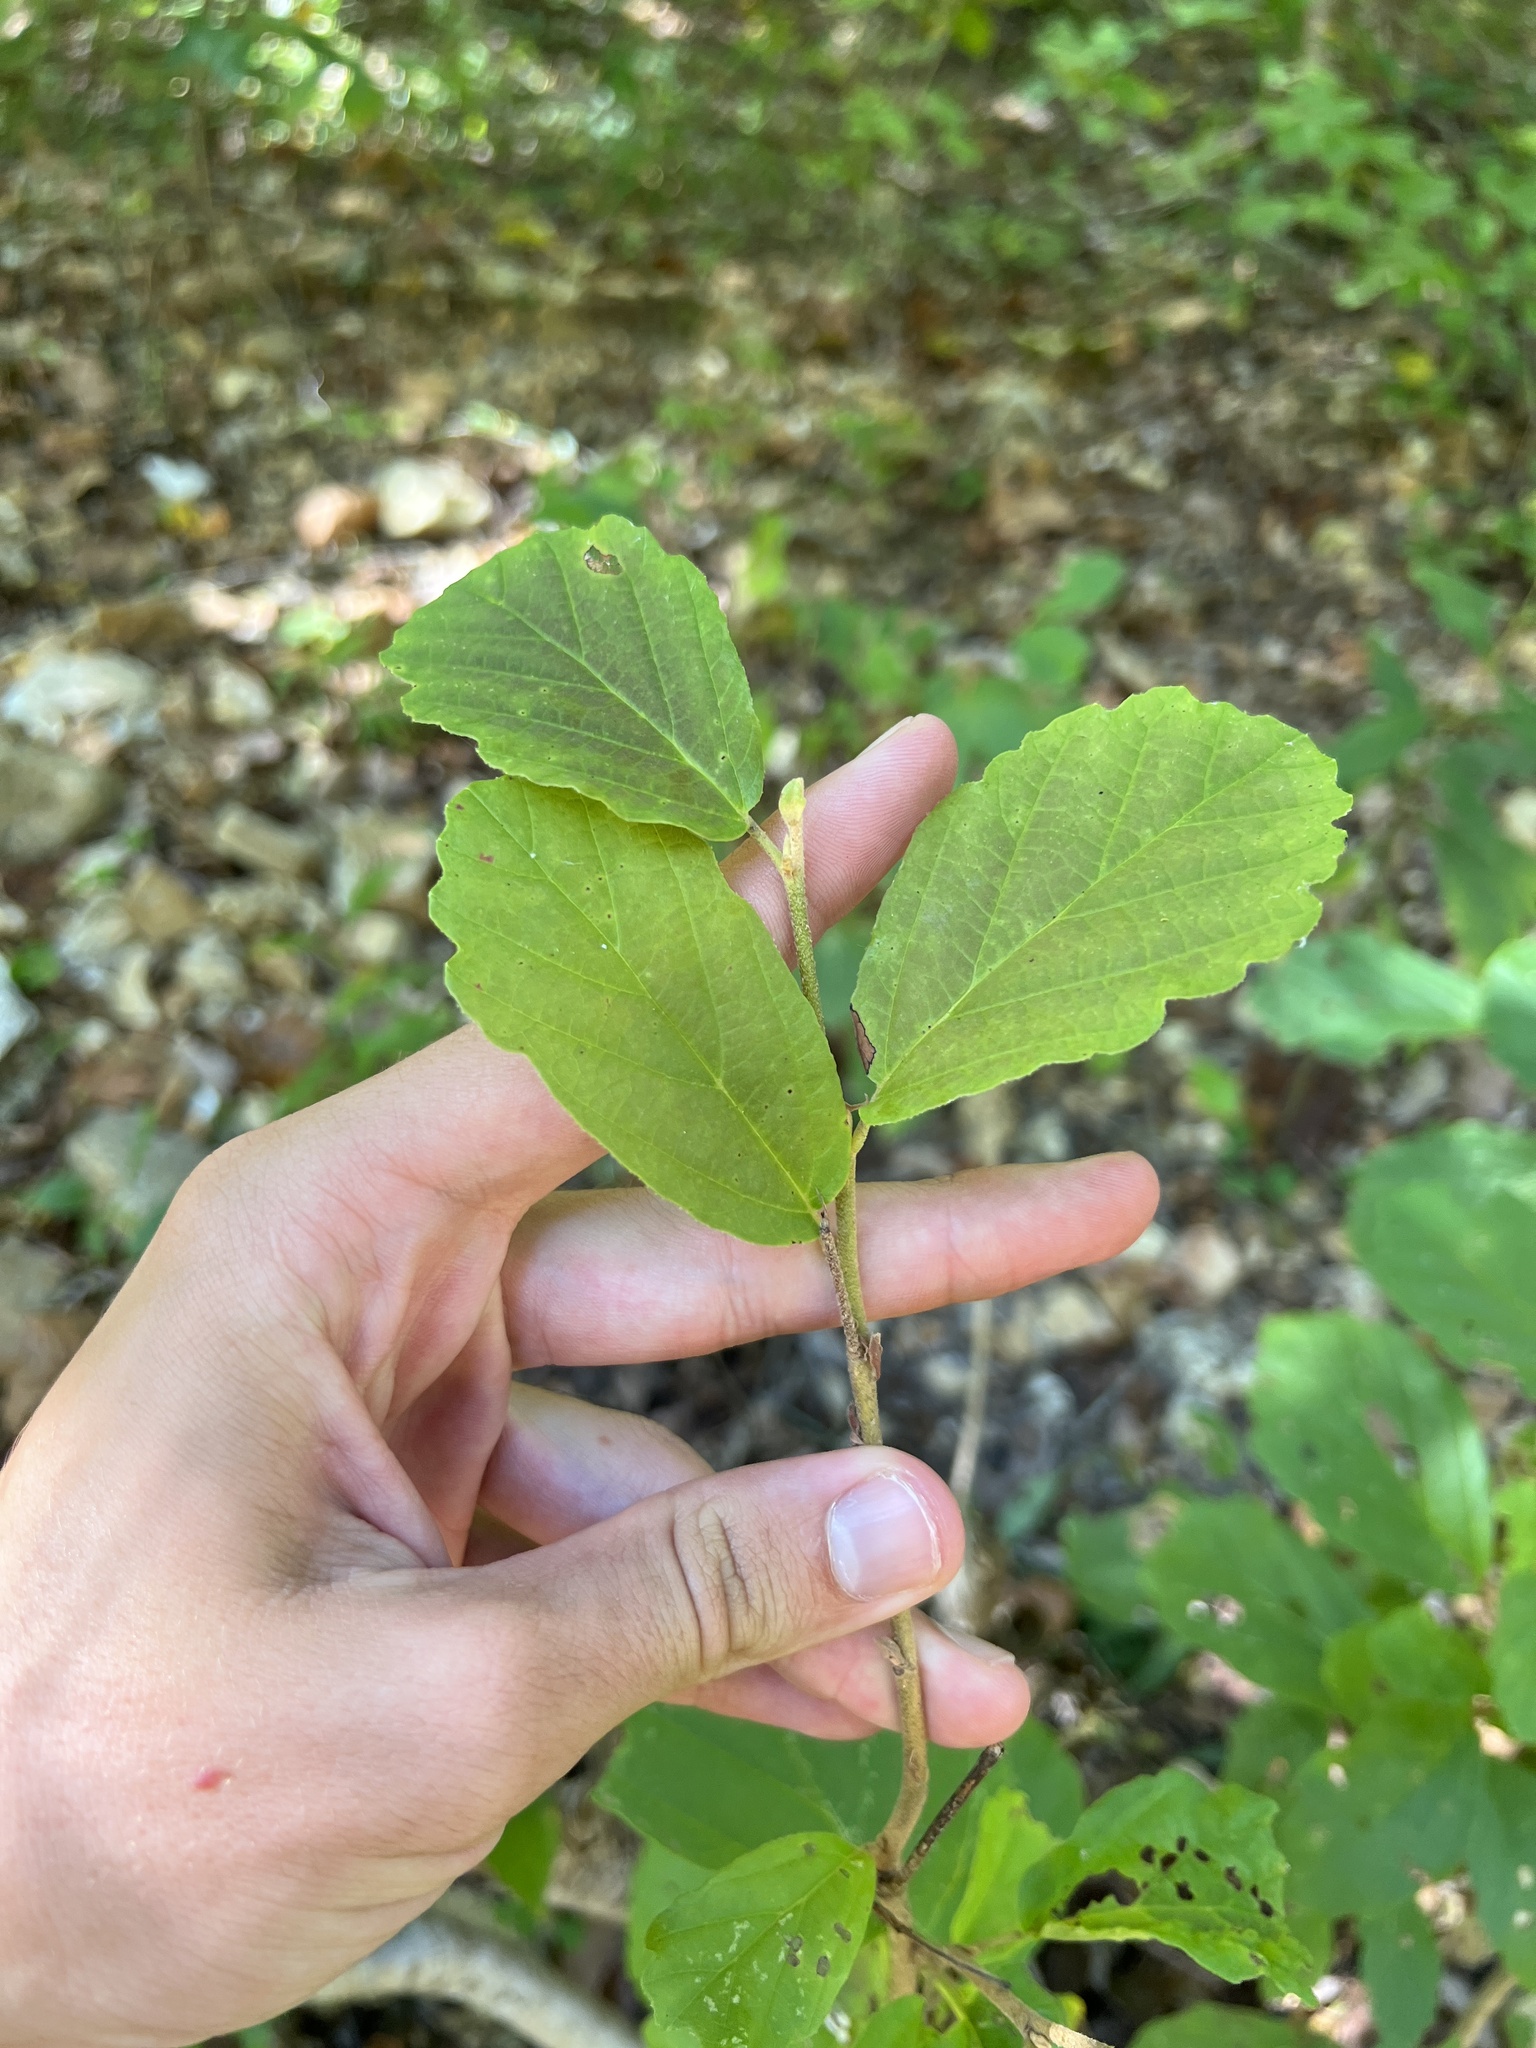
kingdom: Plantae
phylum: Tracheophyta
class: Magnoliopsida
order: Saxifragales
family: Hamamelidaceae
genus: Hamamelis
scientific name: Hamamelis virginiana
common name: Witch-hazel
